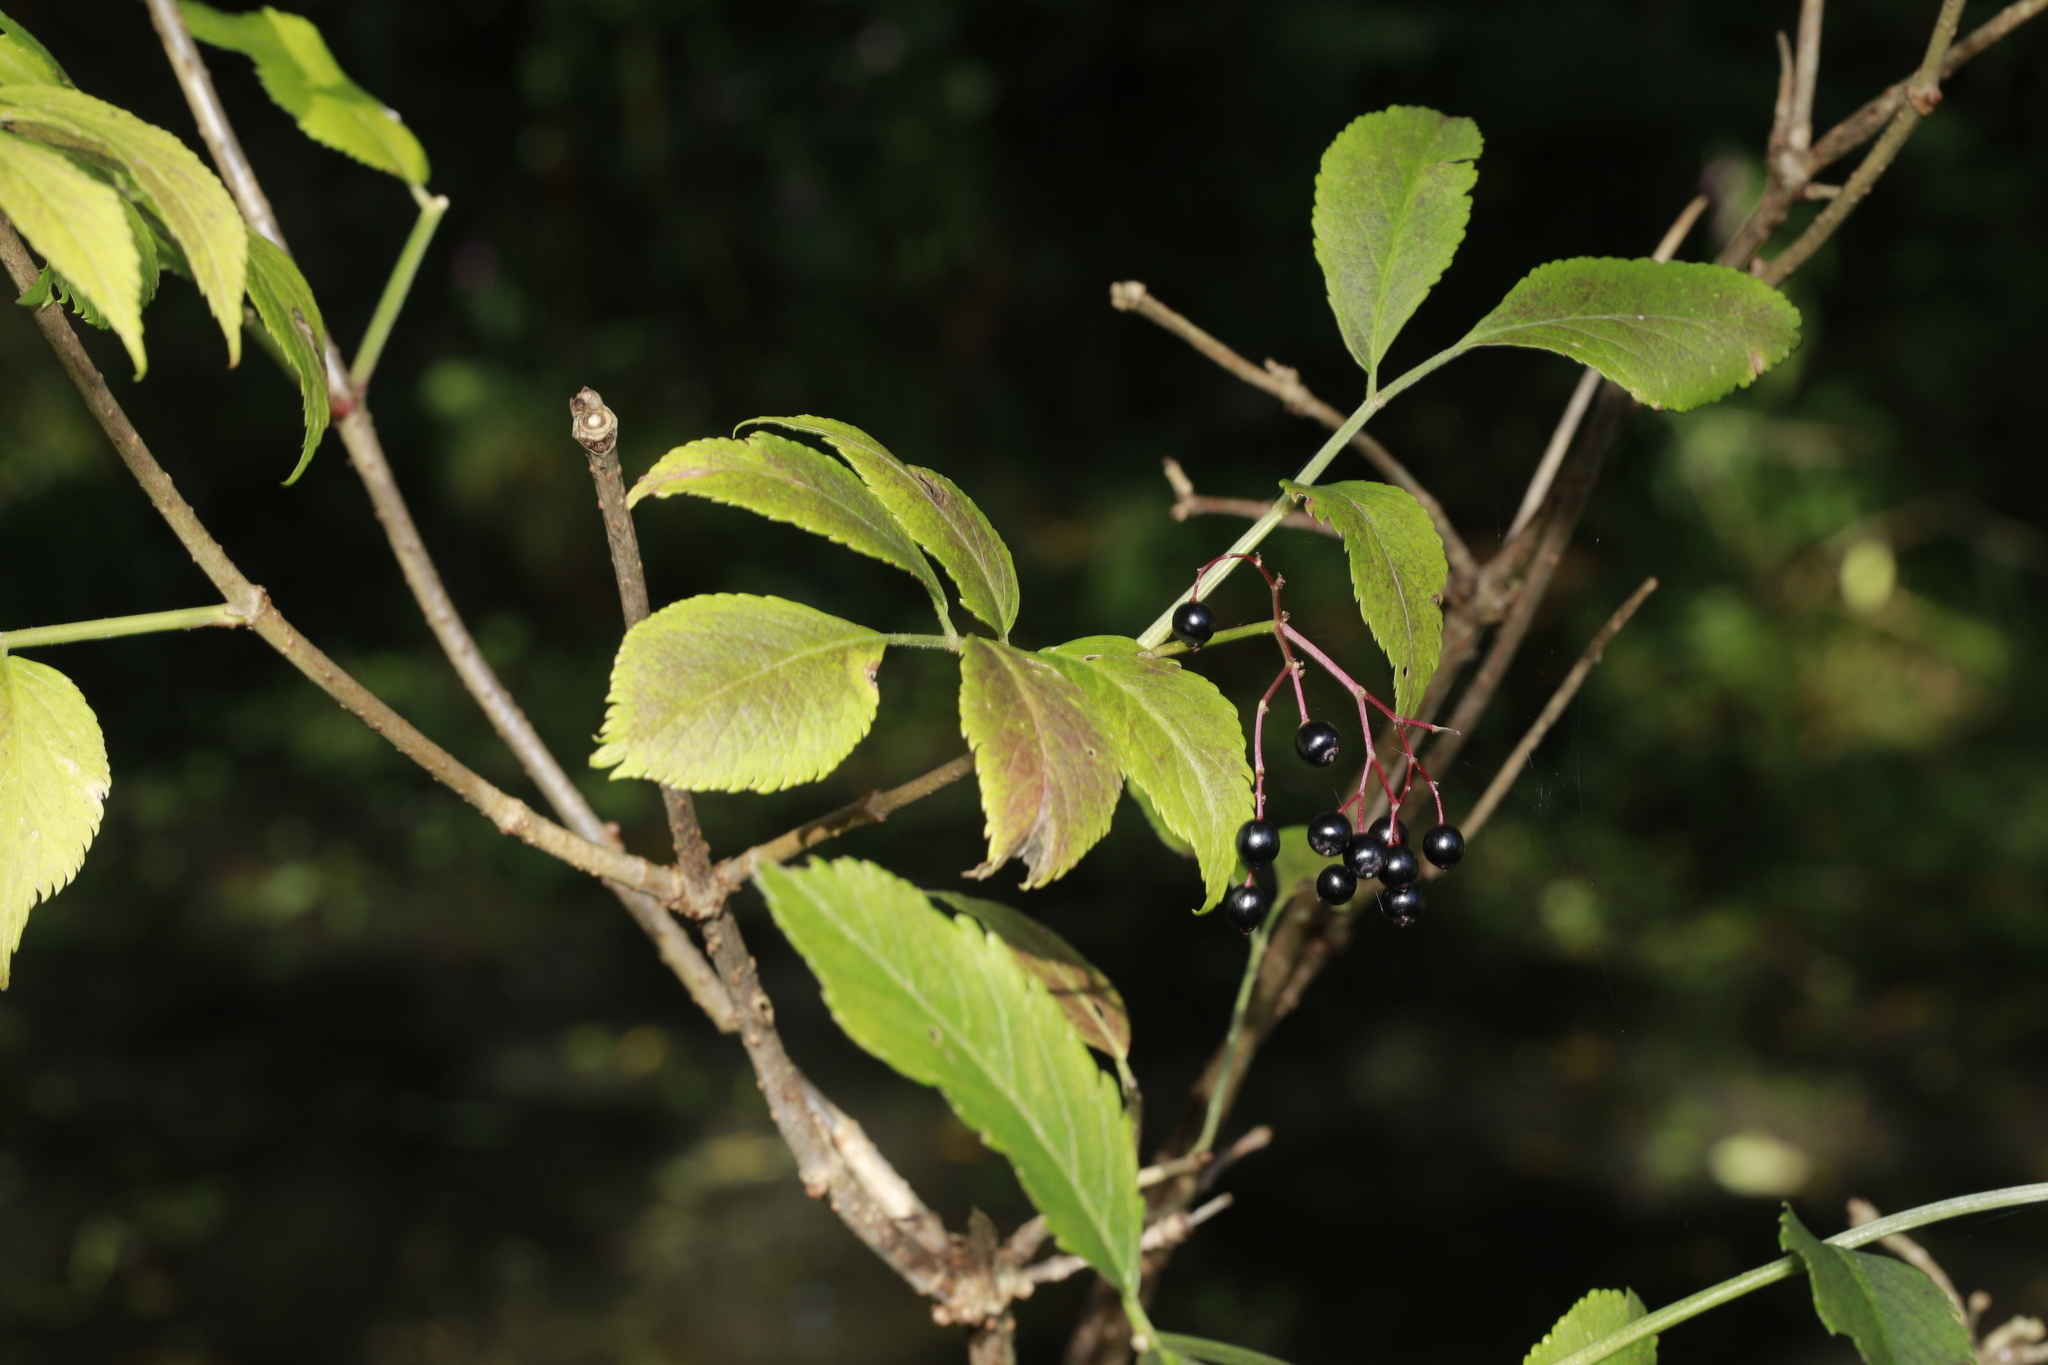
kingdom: Plantae
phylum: Tracheophyta
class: Magnoliopsida
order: Dipsacales
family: Viburnaceae
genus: Sambucus
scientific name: Sambucus nigra
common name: Elder
